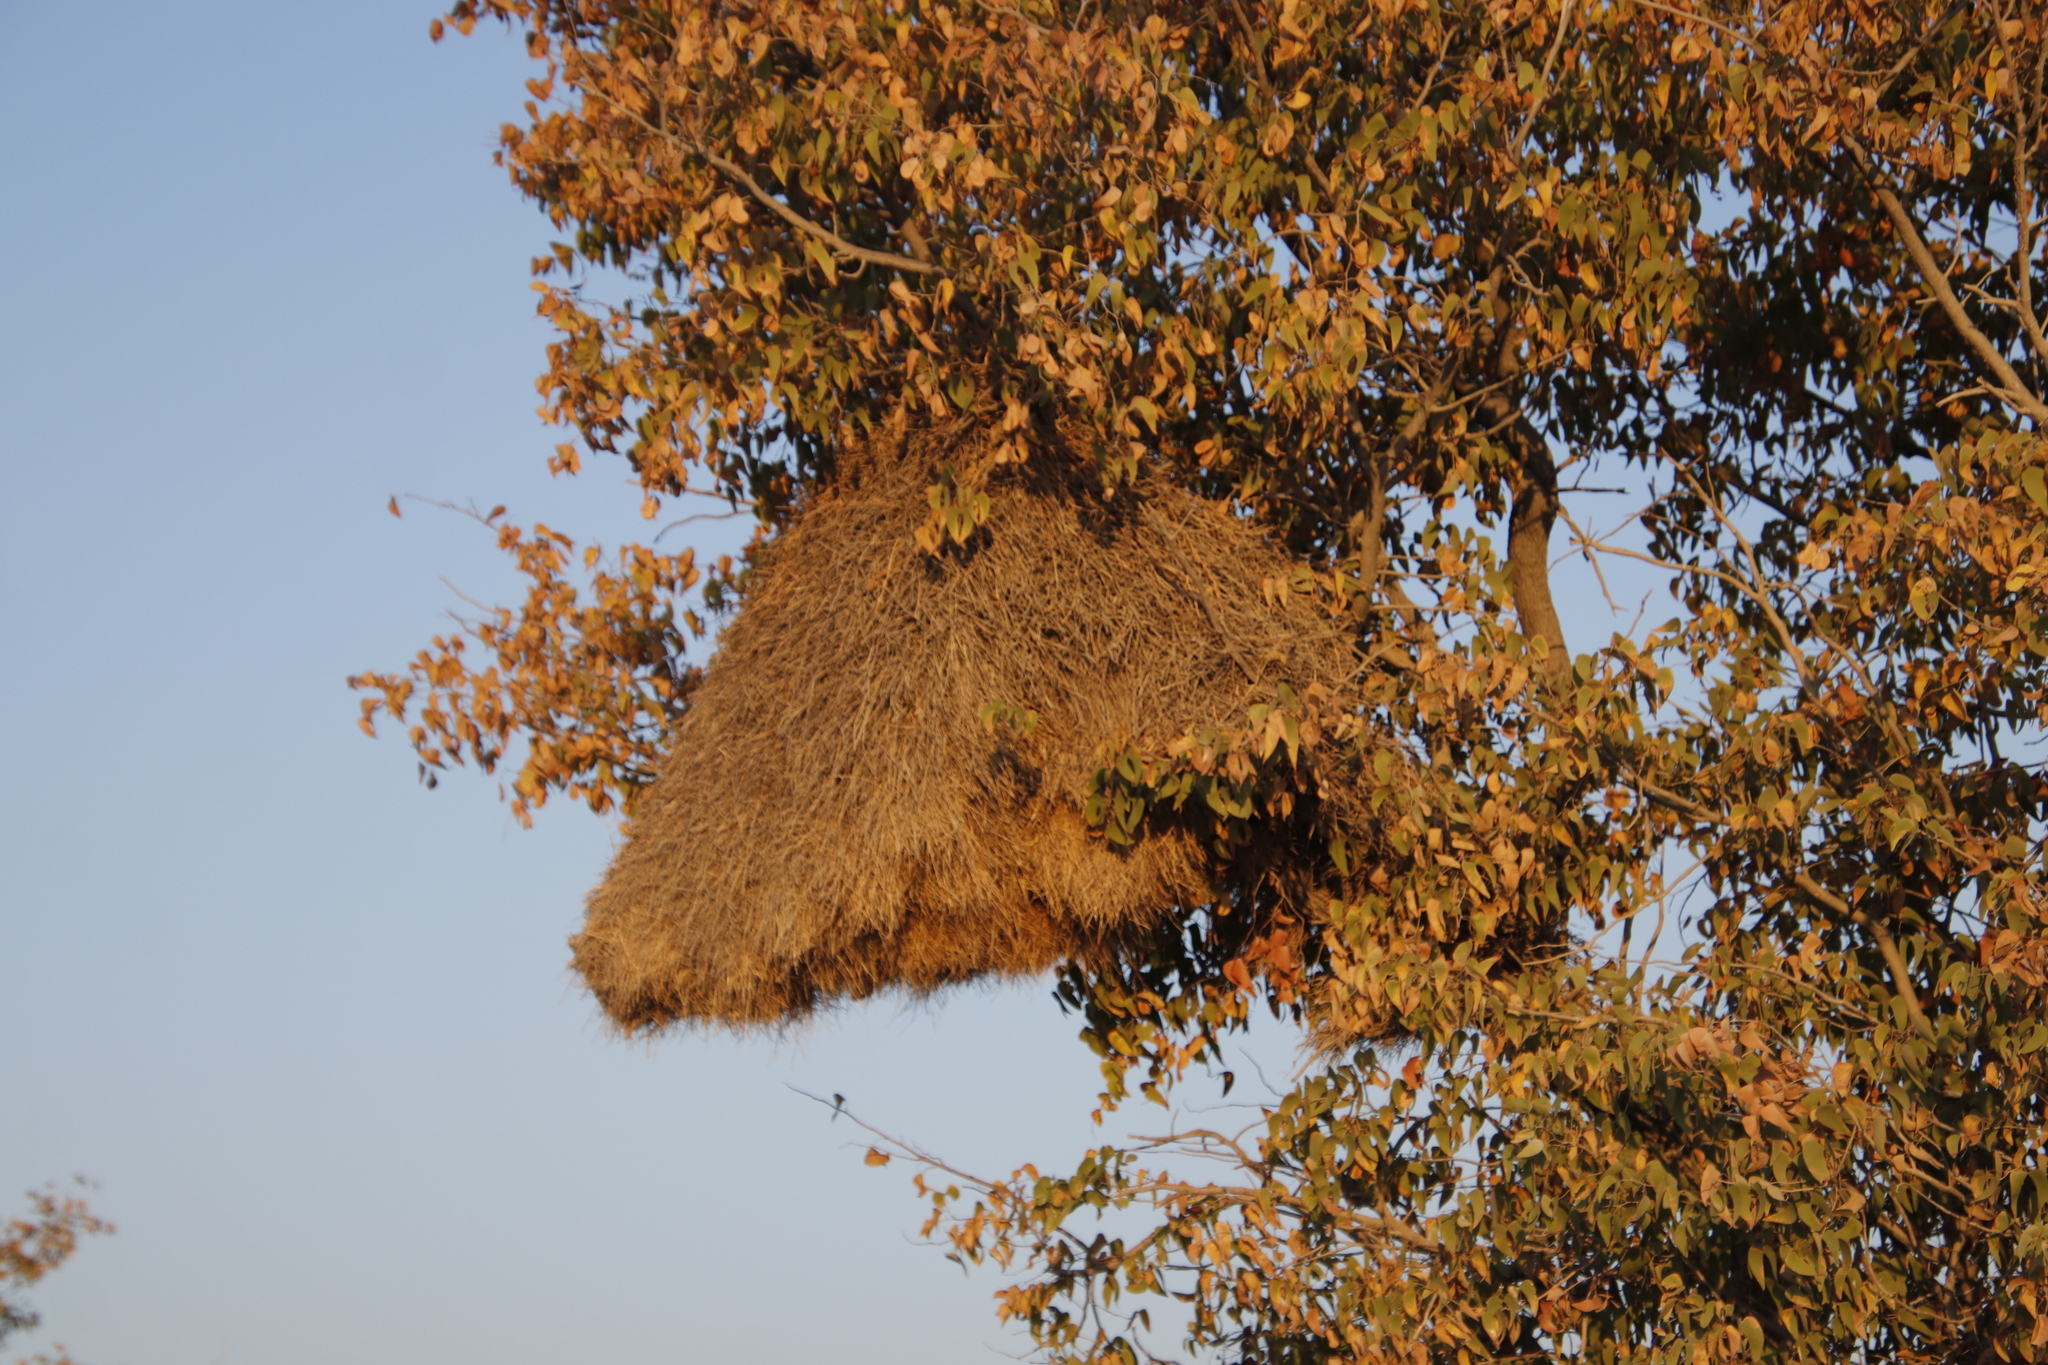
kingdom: Animalia
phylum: Chordata
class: Aves
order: Passeriformes
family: Passeridae
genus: Philetairus
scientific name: Philetairus socius
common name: Sociable weaver
